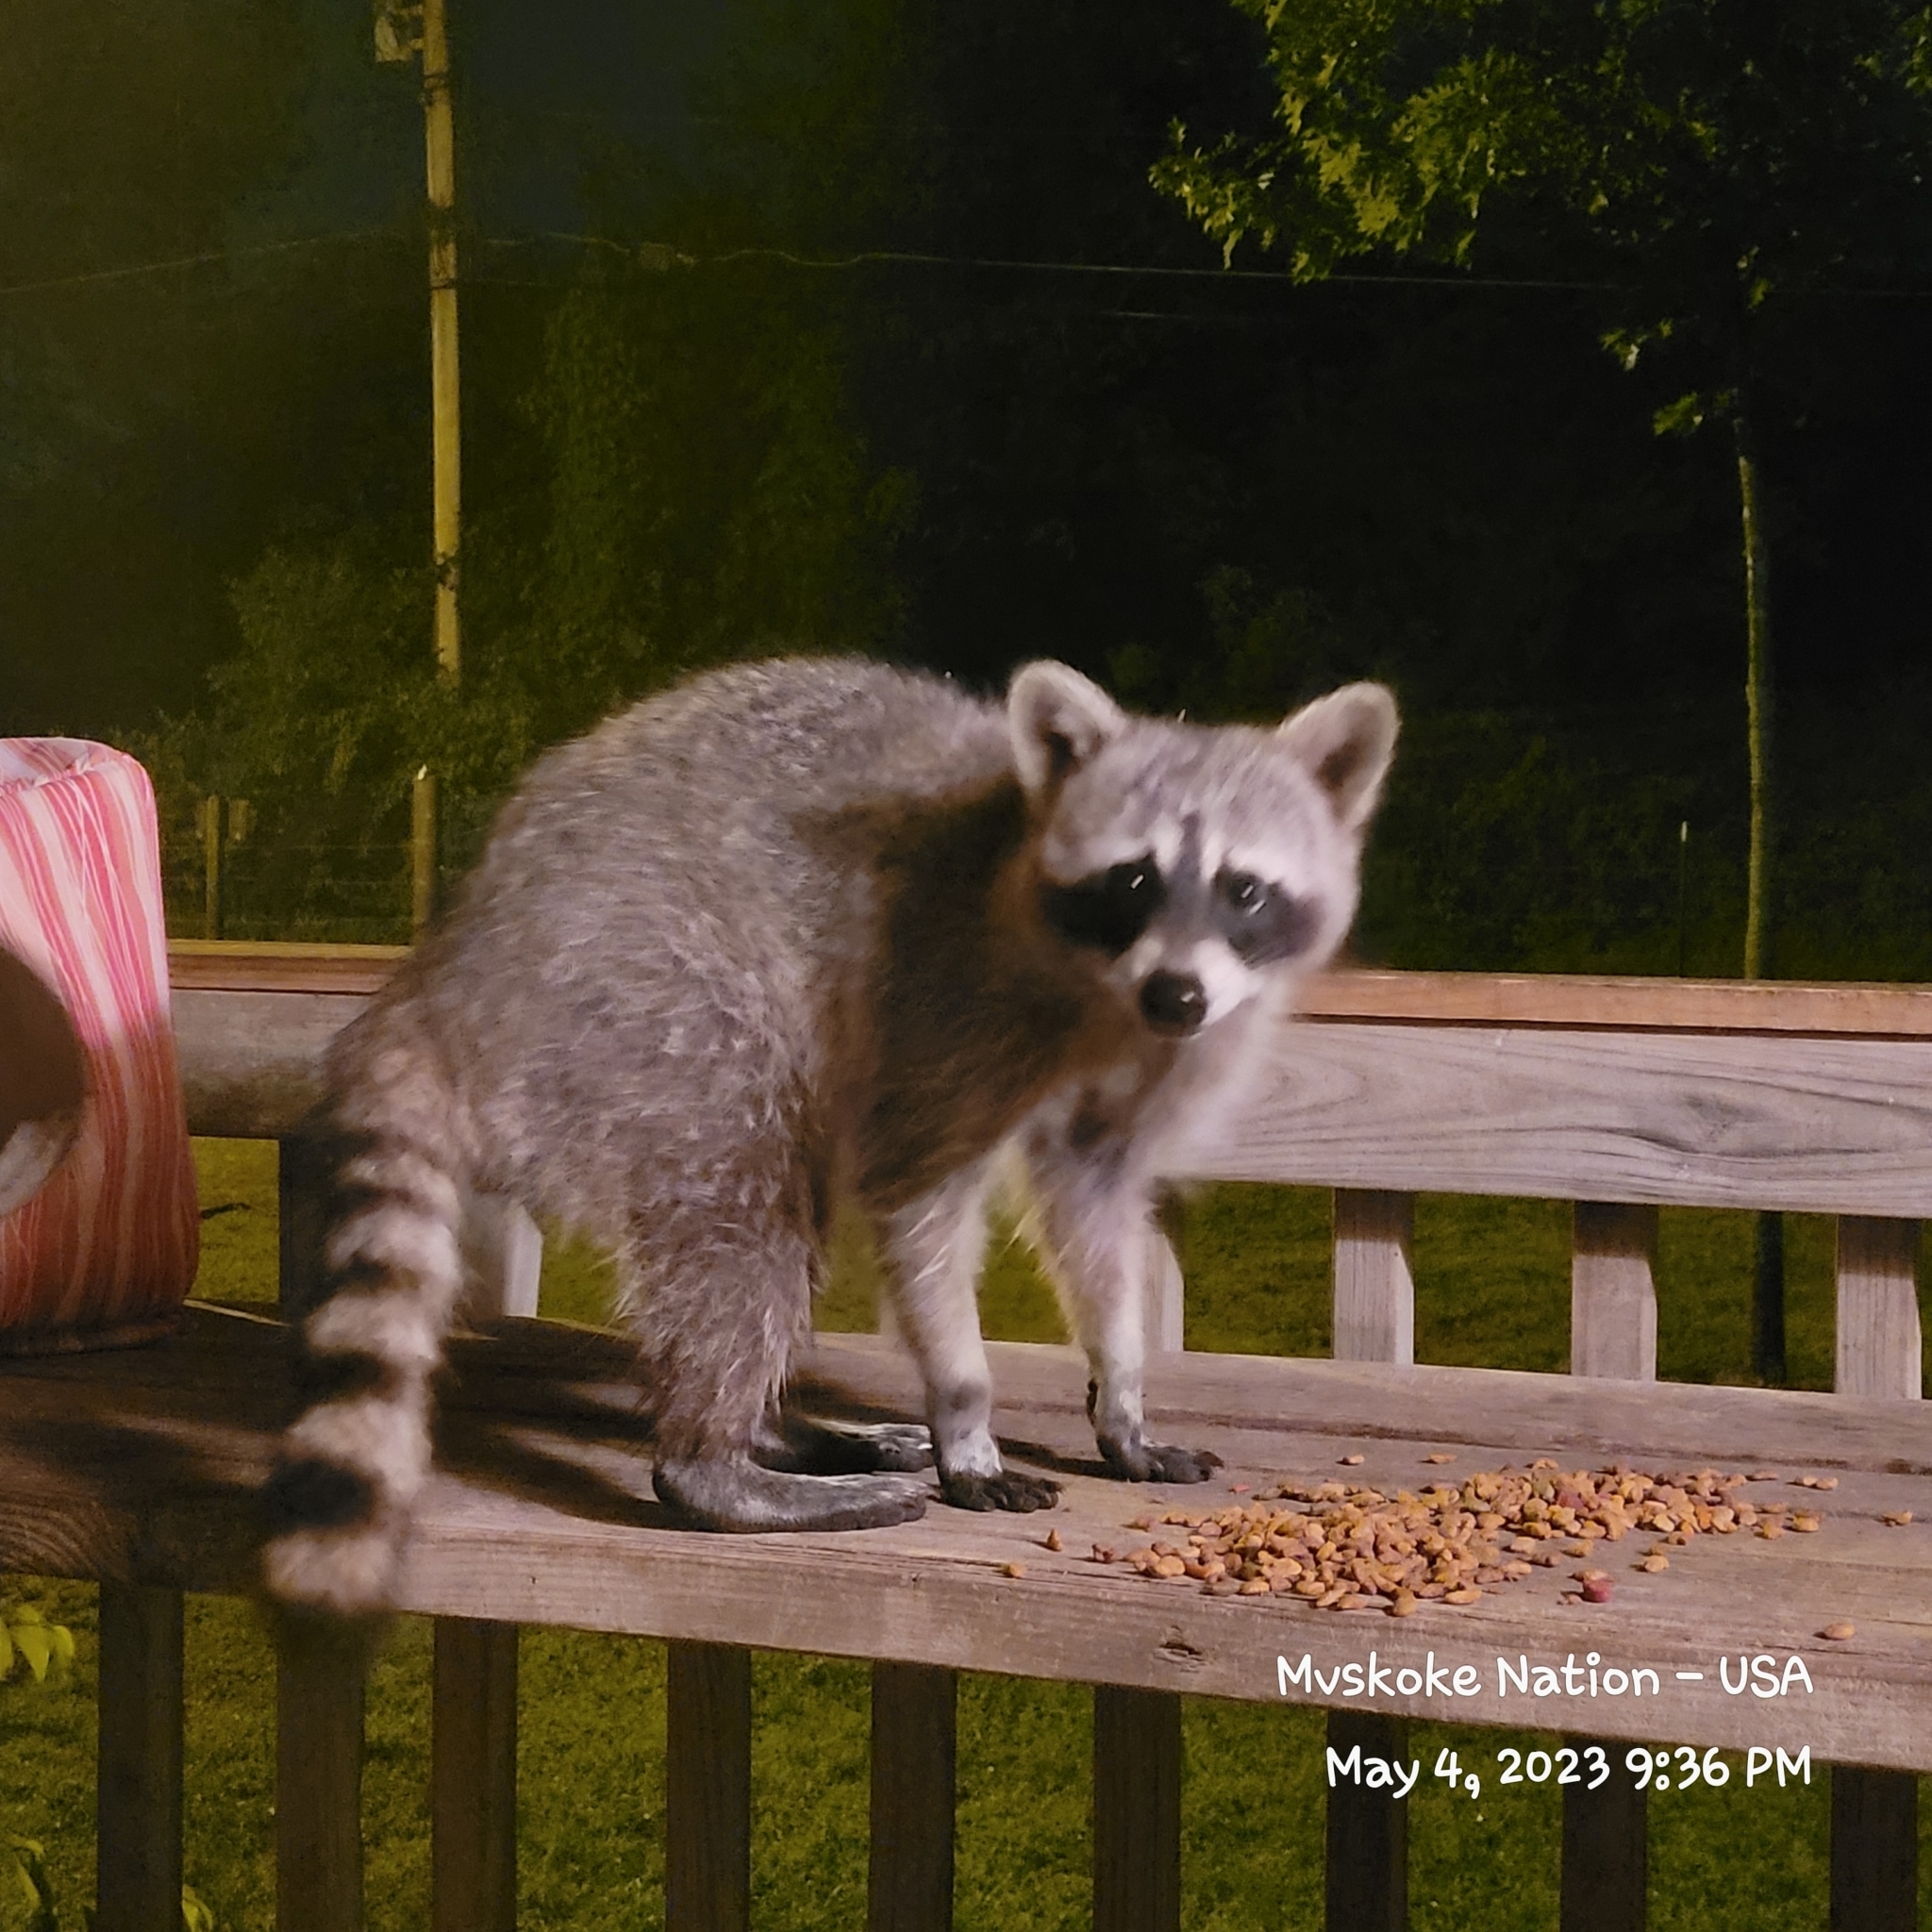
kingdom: Animalia
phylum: Chordata
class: Mammalia
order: Carnivora
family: Procyonidae
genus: Procyon
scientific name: Procyon lotor
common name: Raccoon
